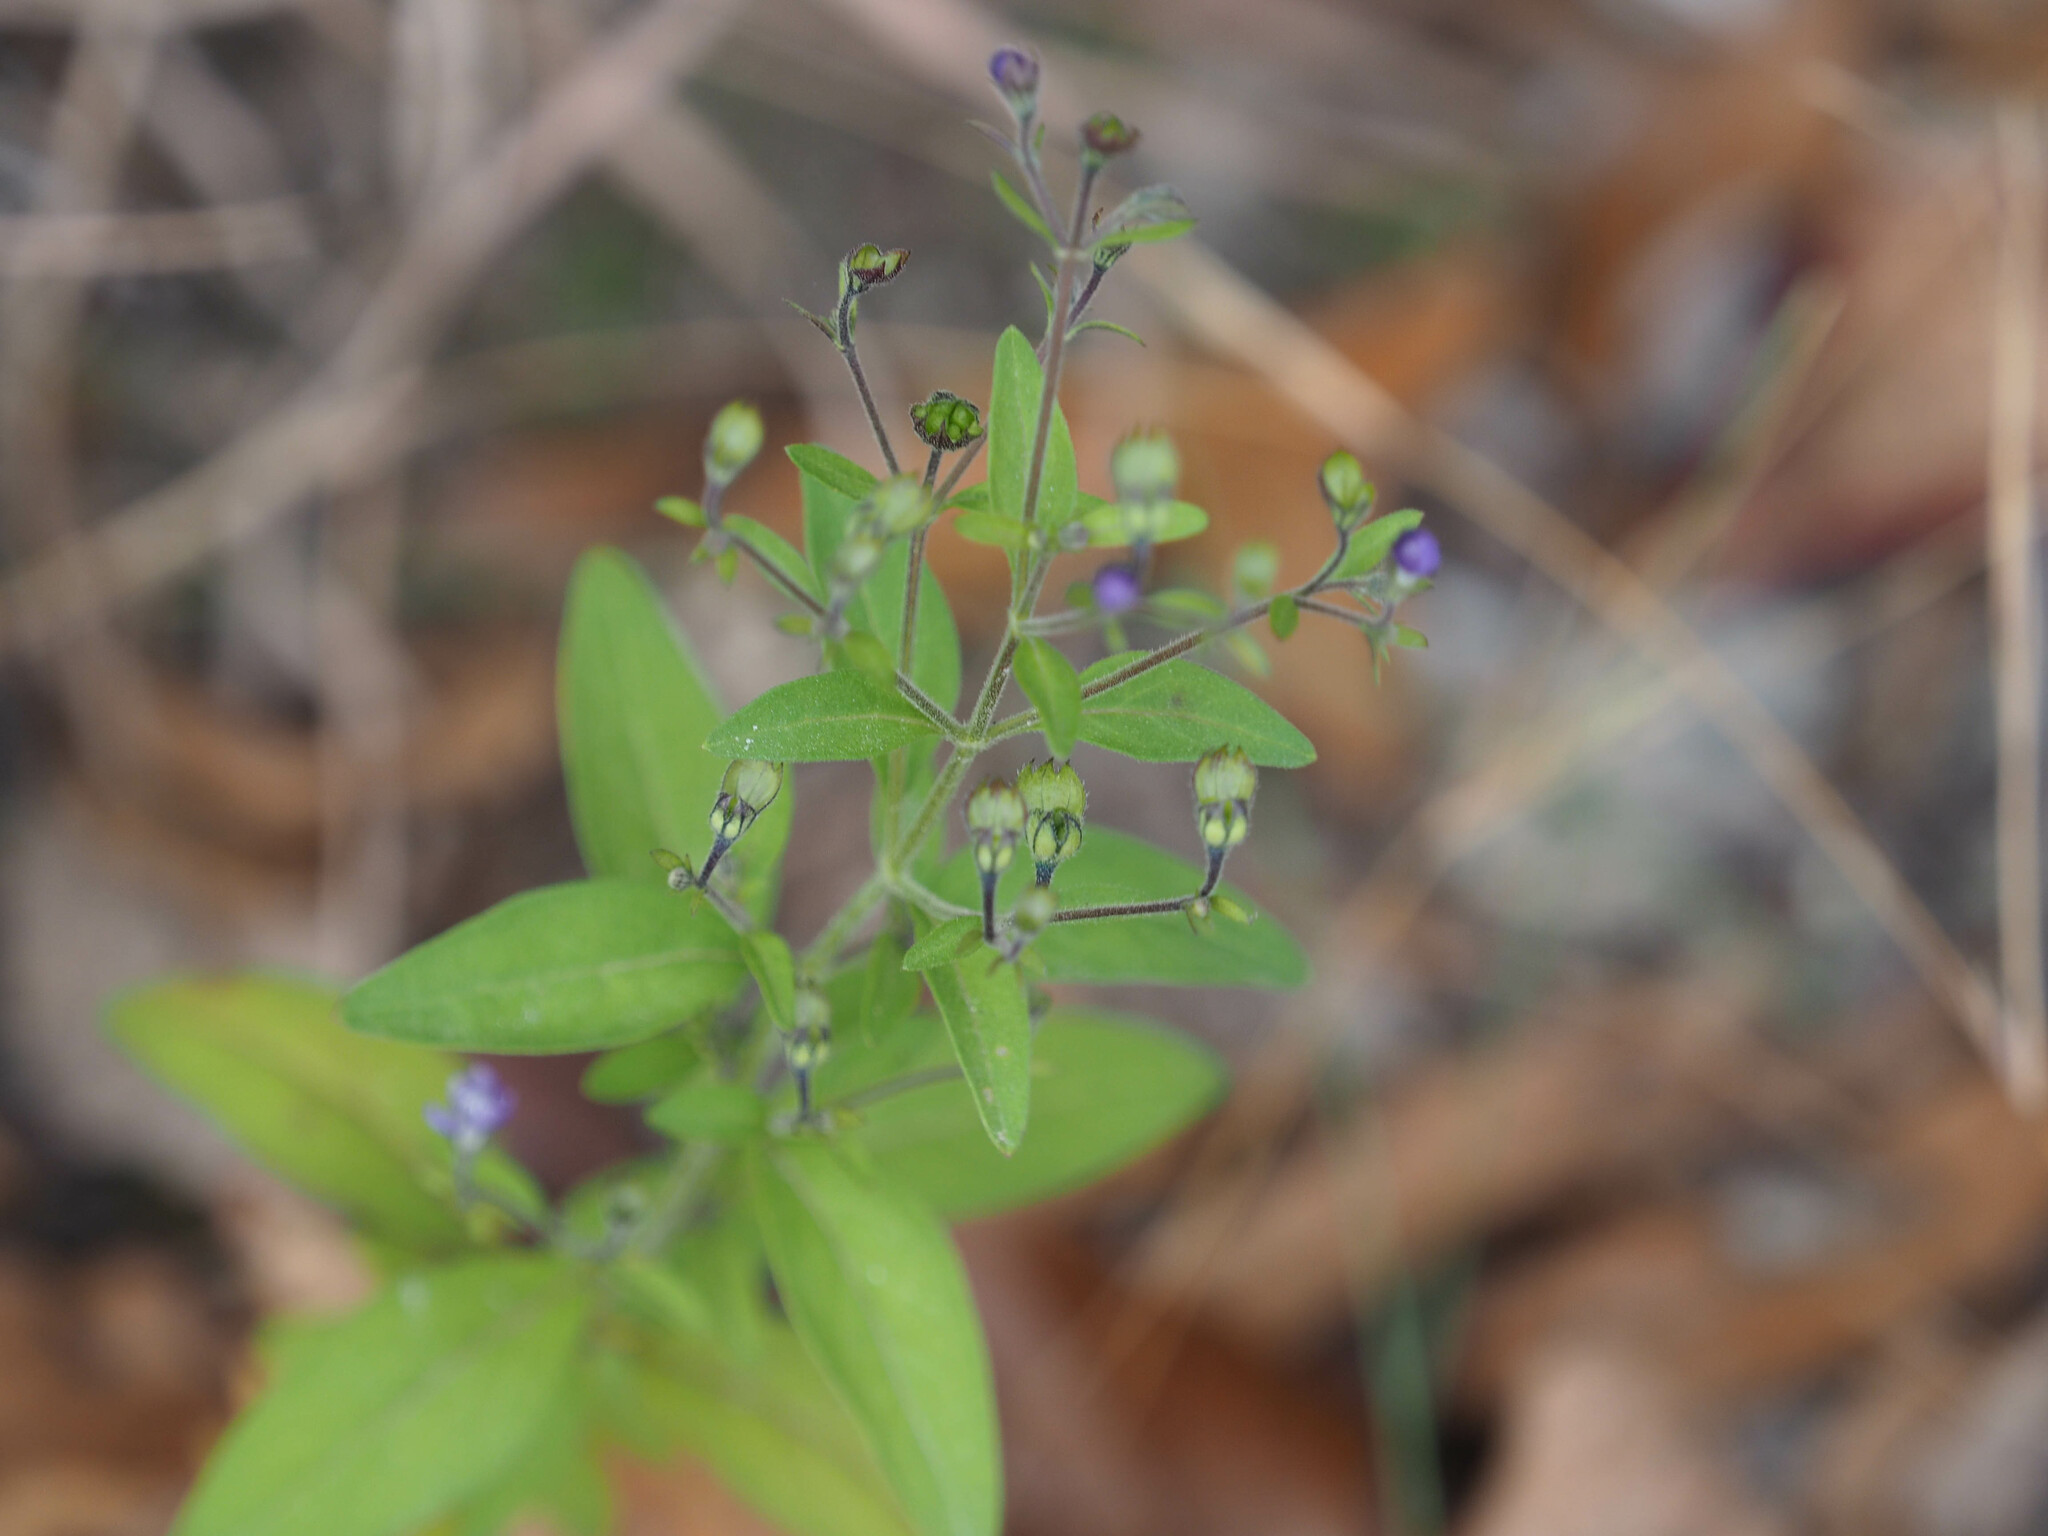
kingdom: Plantae
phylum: Tracheophyta
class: Magnoliopsida
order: Lamiales
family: Lamiaceae
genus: Trichostema
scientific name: Trichostema dichotomum
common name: Bastard pennyroyal
